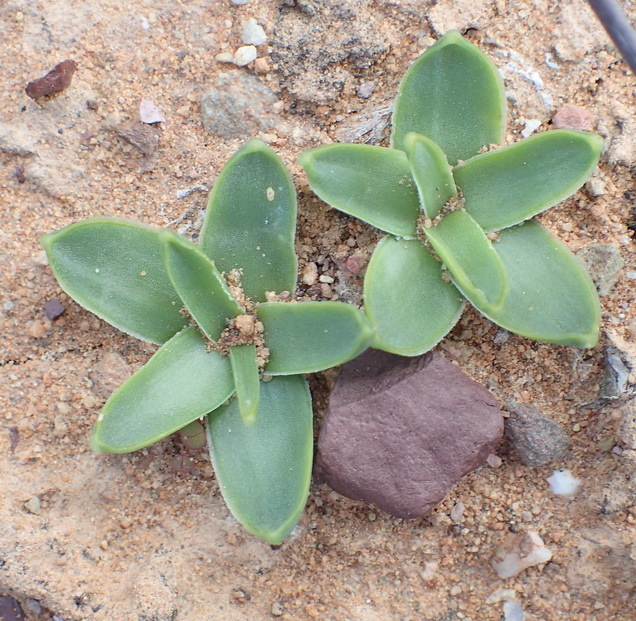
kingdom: Plantae
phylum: Tracheophyta
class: Liliopsida
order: Asparagales
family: Asparagaceae
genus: Drimia
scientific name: Drimia cochlearis
